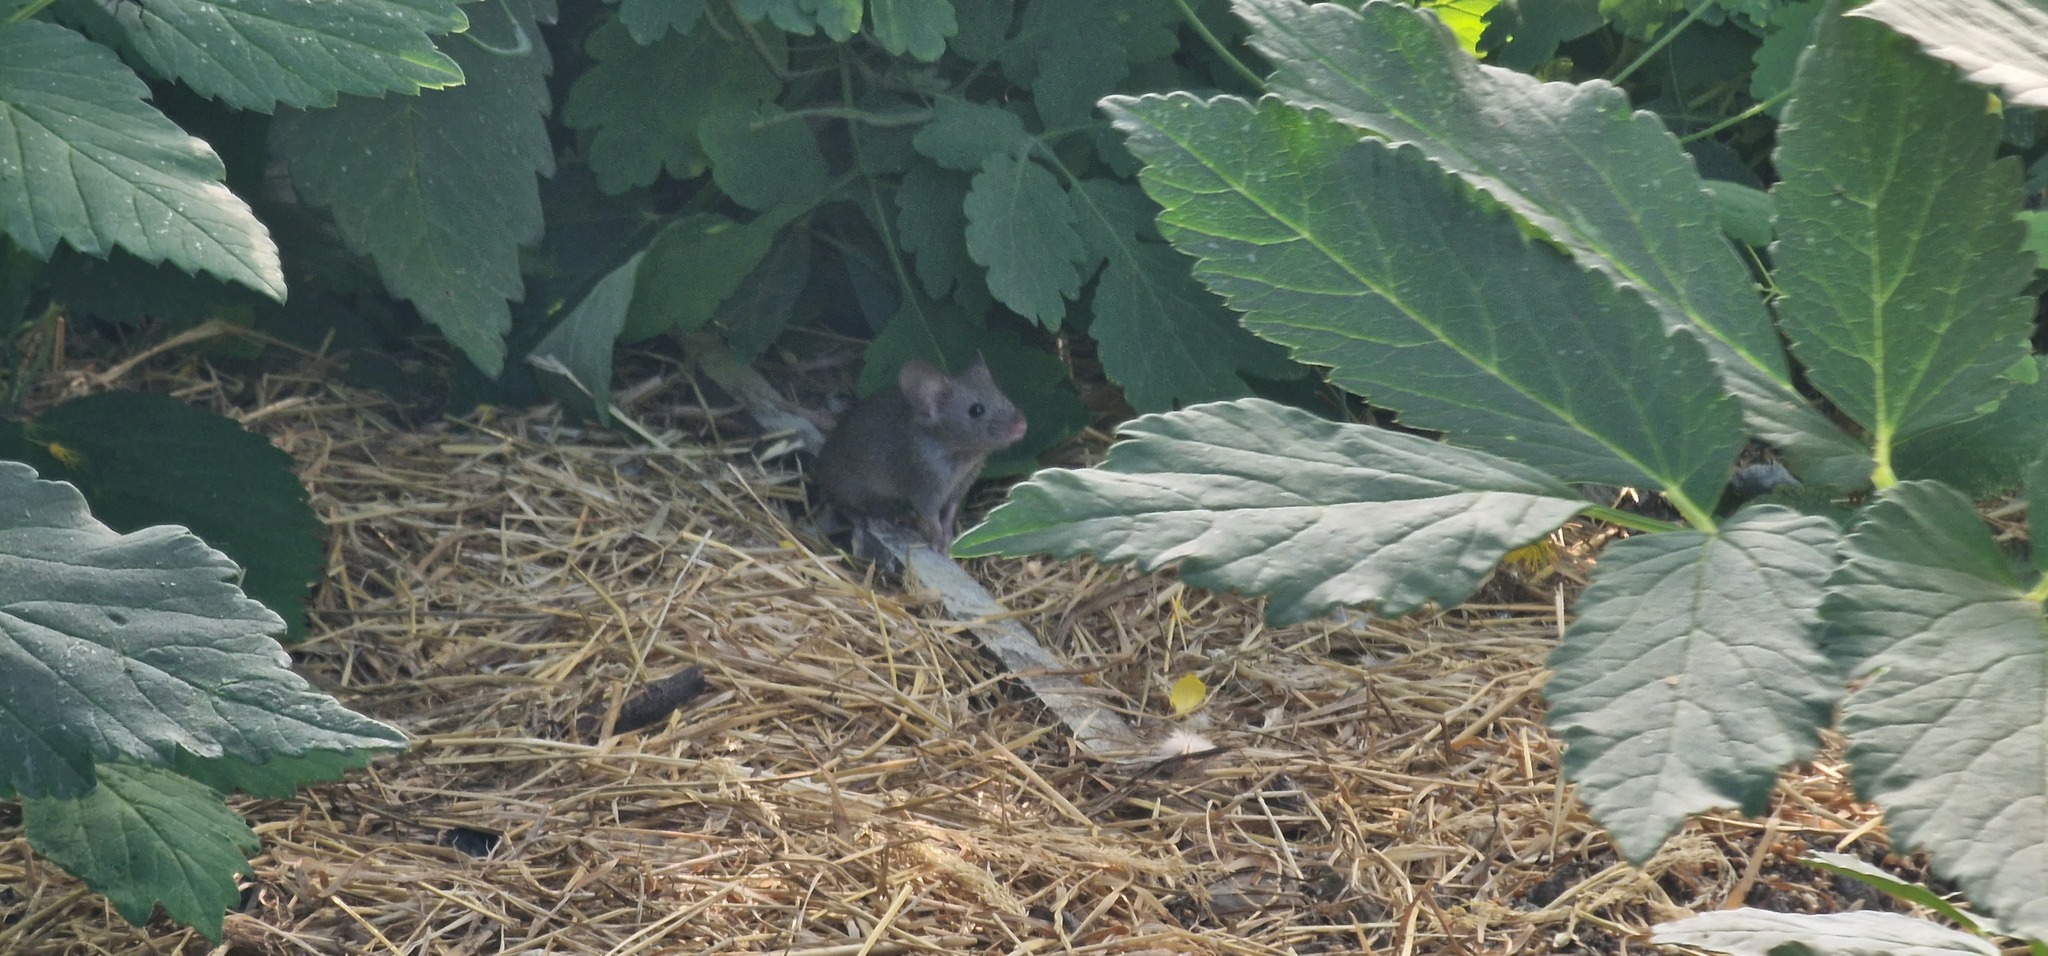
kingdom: Animalia
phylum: Chordata
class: Mammalia
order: Rodentia
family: Muridae
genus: Mus
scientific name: Mus musculus
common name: House mouse
